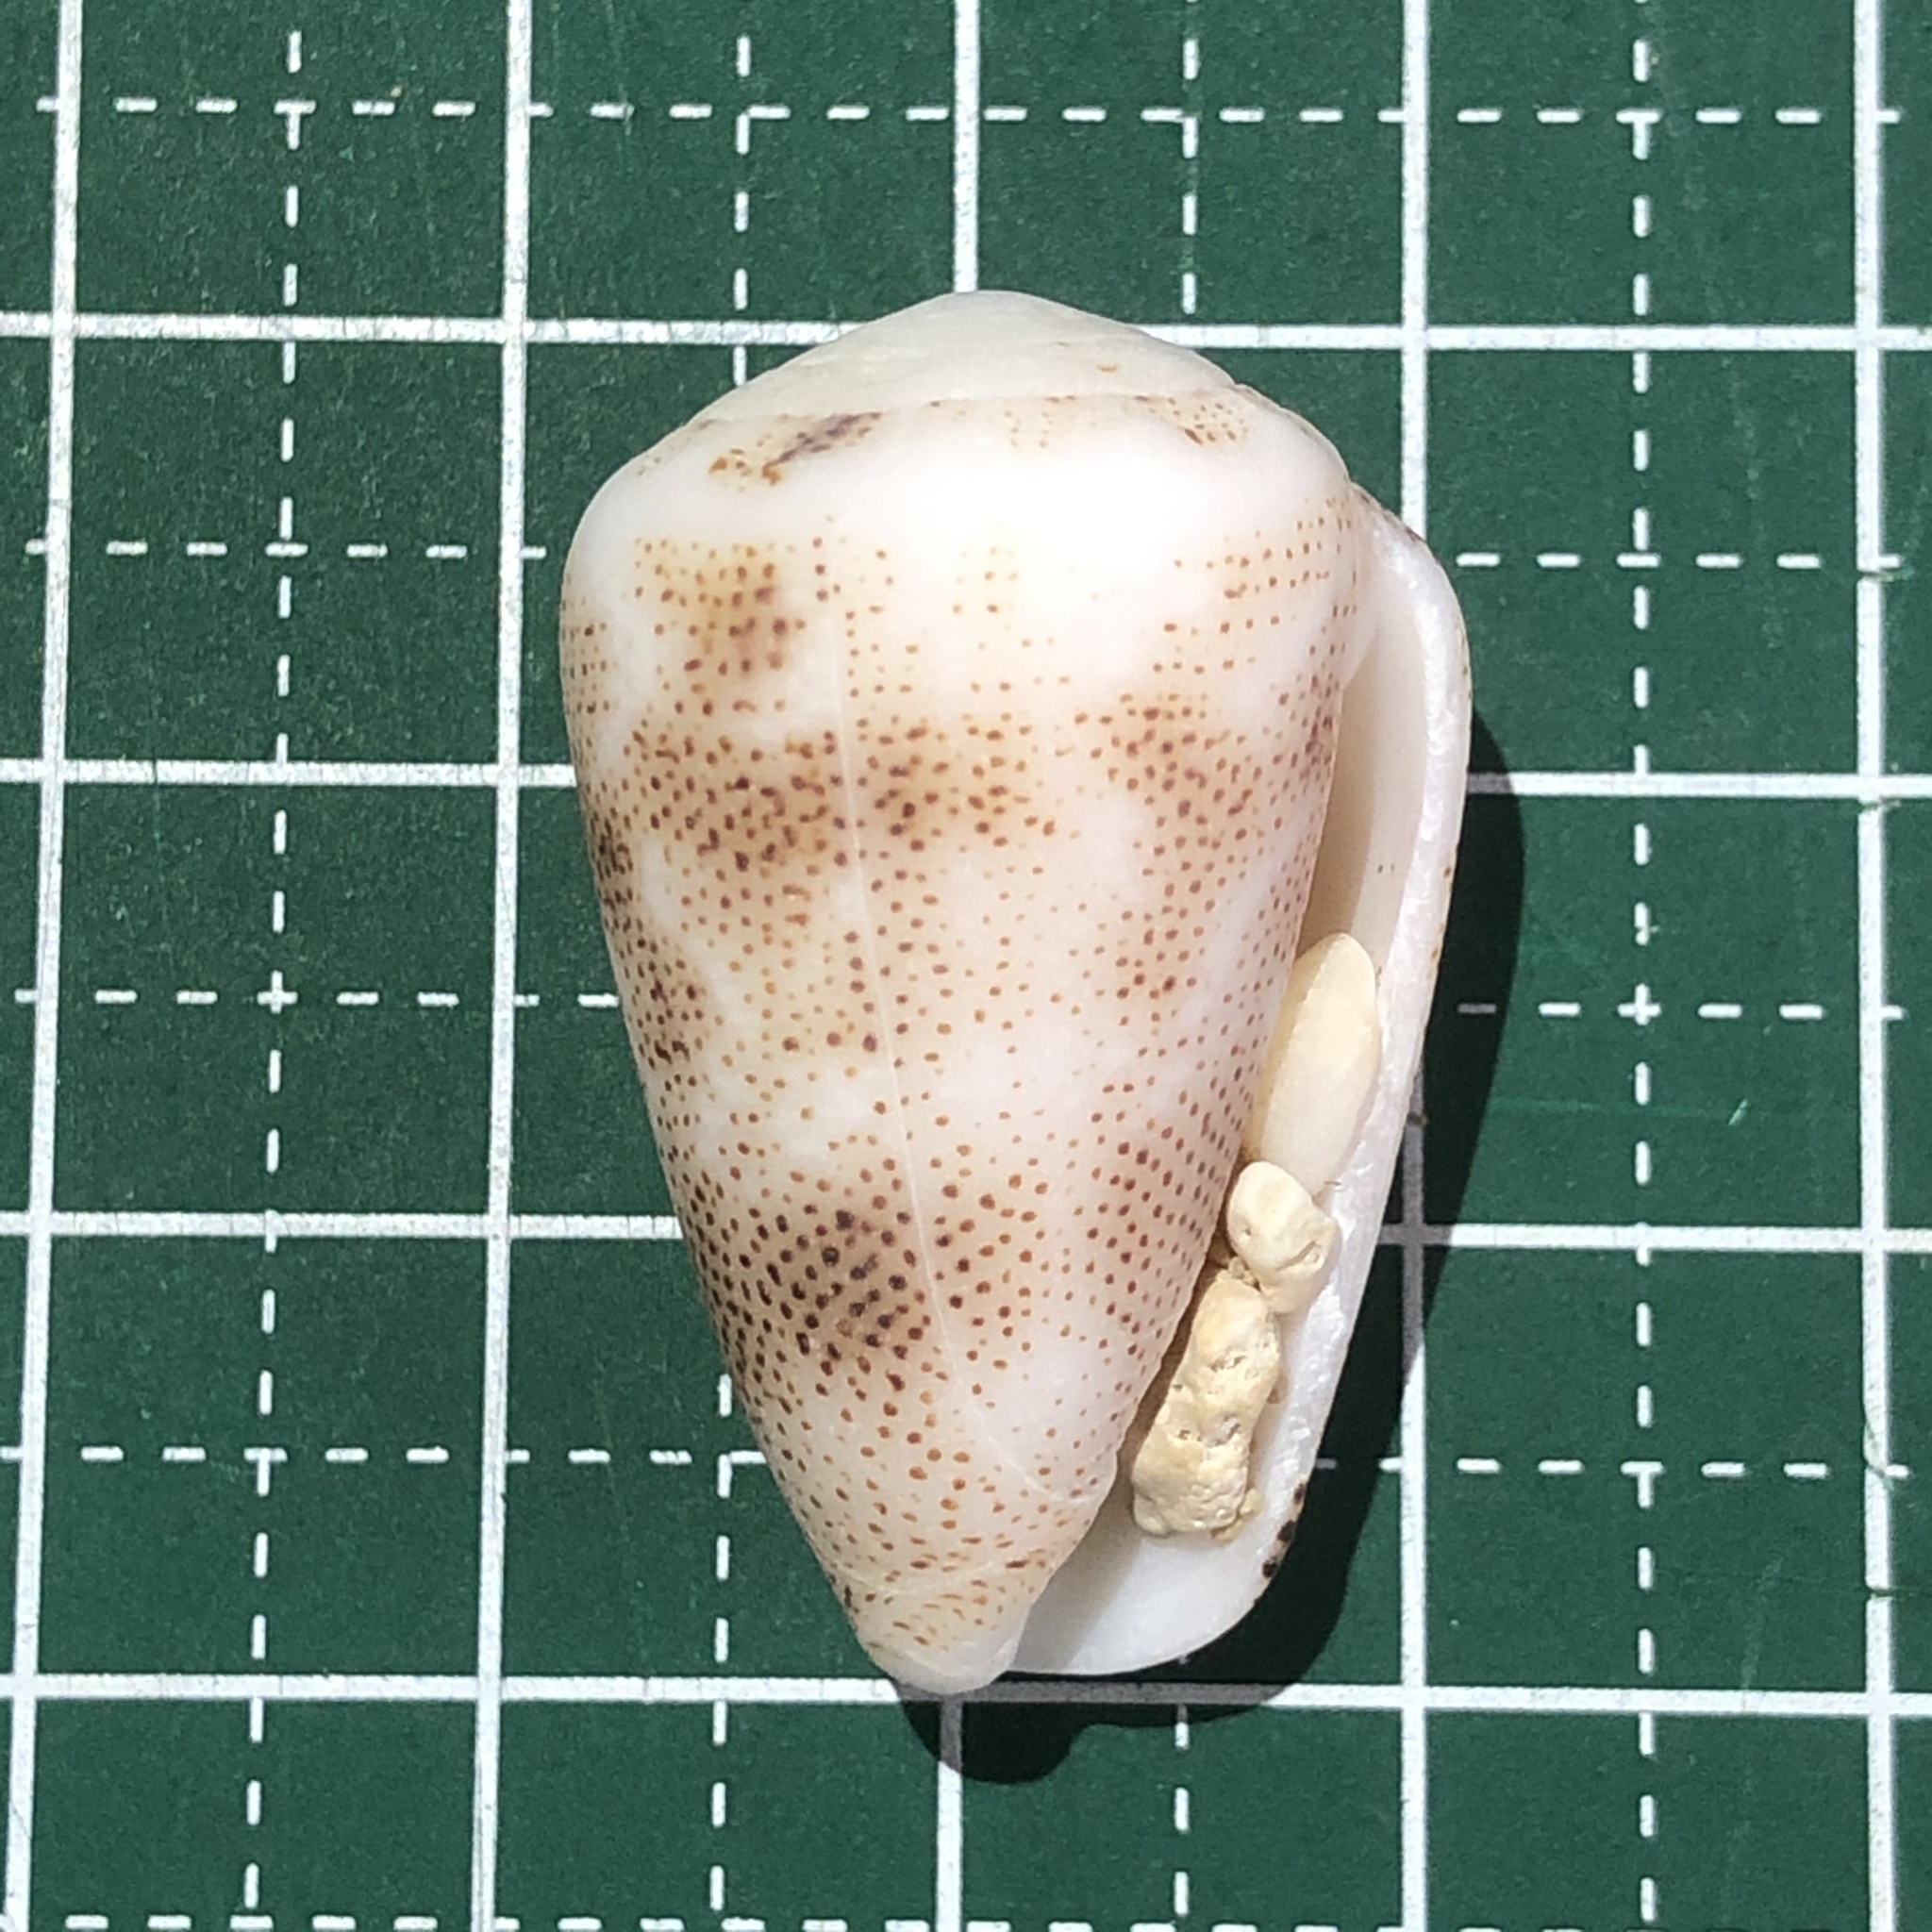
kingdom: Animalia
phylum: Mollusca
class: Gastropoda
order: Neogastropoda
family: Conidae
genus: Conus
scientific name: Conus arenatus
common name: Sand-dusted cone
